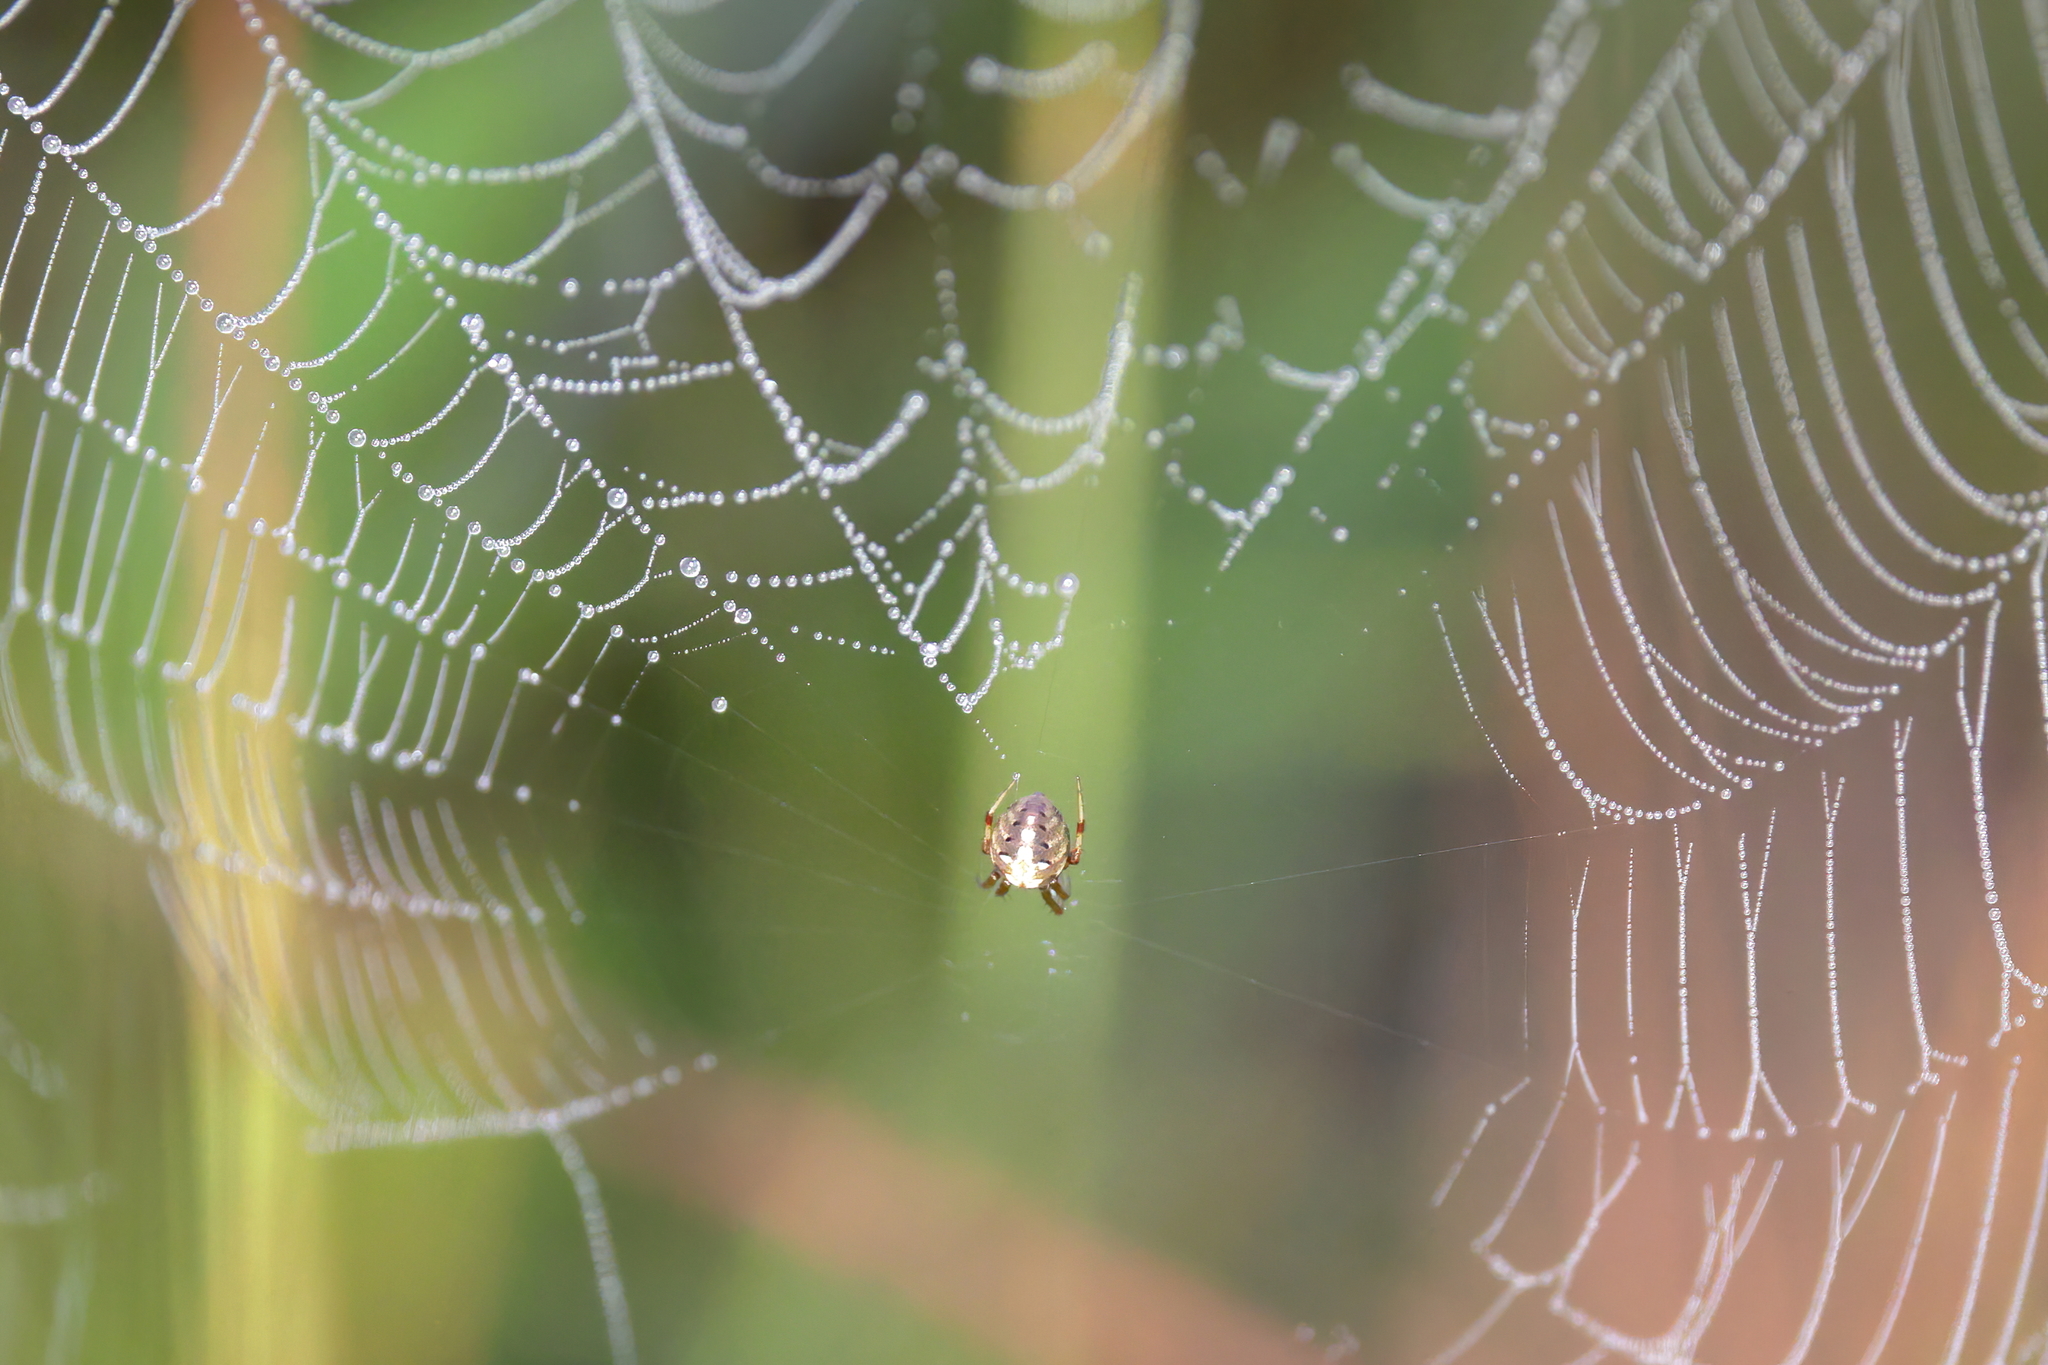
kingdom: Animalia
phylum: Arthropoda
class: Arachnida
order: Araneae
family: Araneidae
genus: Neoscona
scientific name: Neoscona arabesca
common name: Orb weavers
